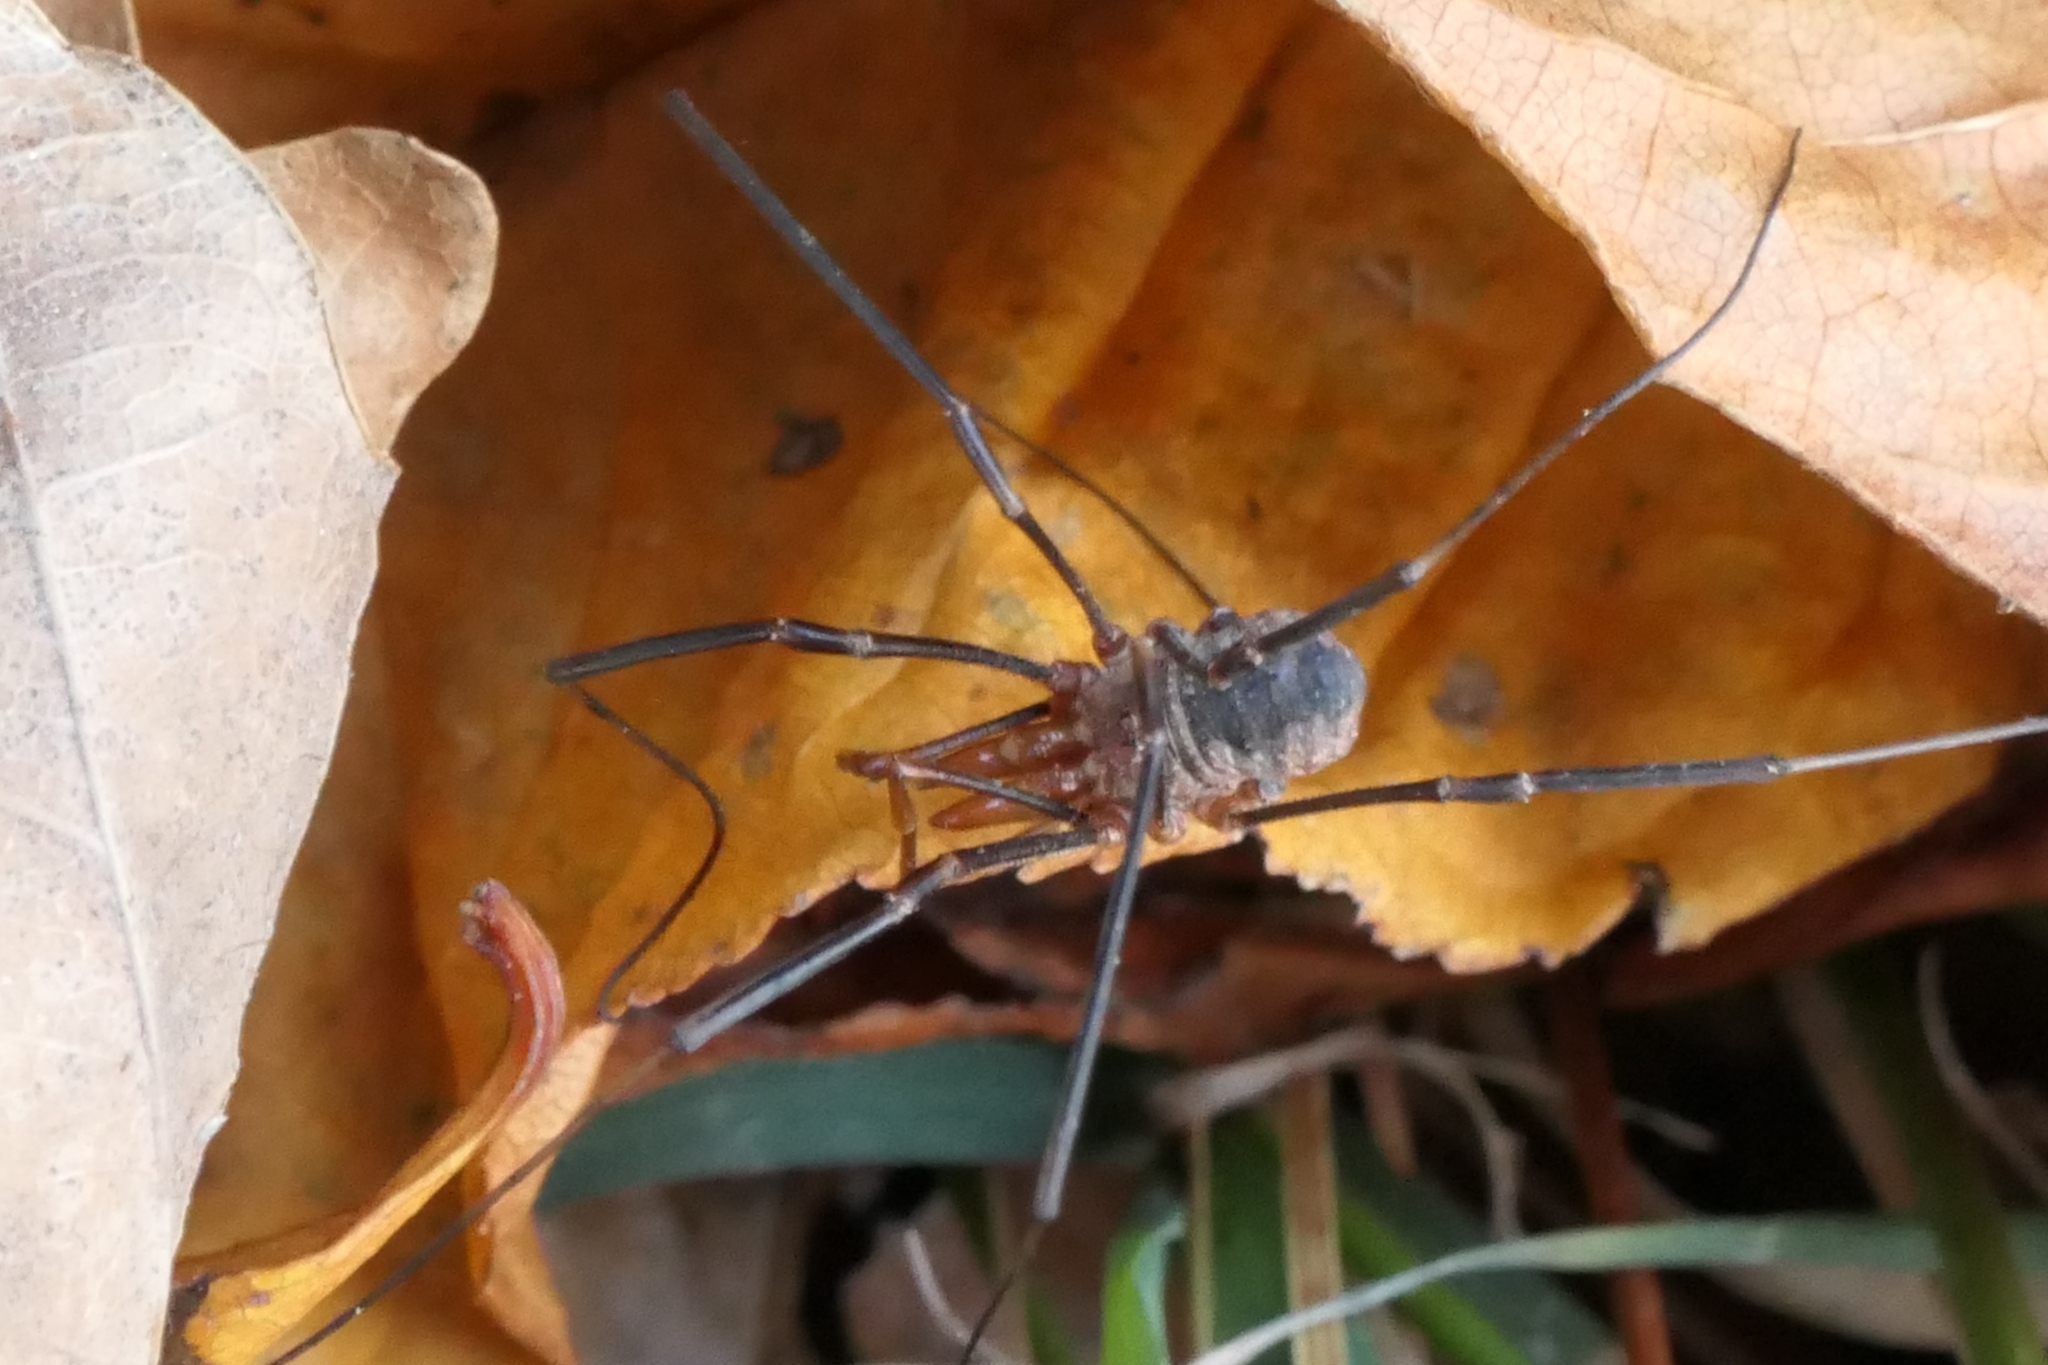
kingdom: Animalia
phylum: Arthropoda
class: Arachnida
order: Opiliones
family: Phalangiidae
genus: Phalangium
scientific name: Phalangium opilio
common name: Daddy longleg
